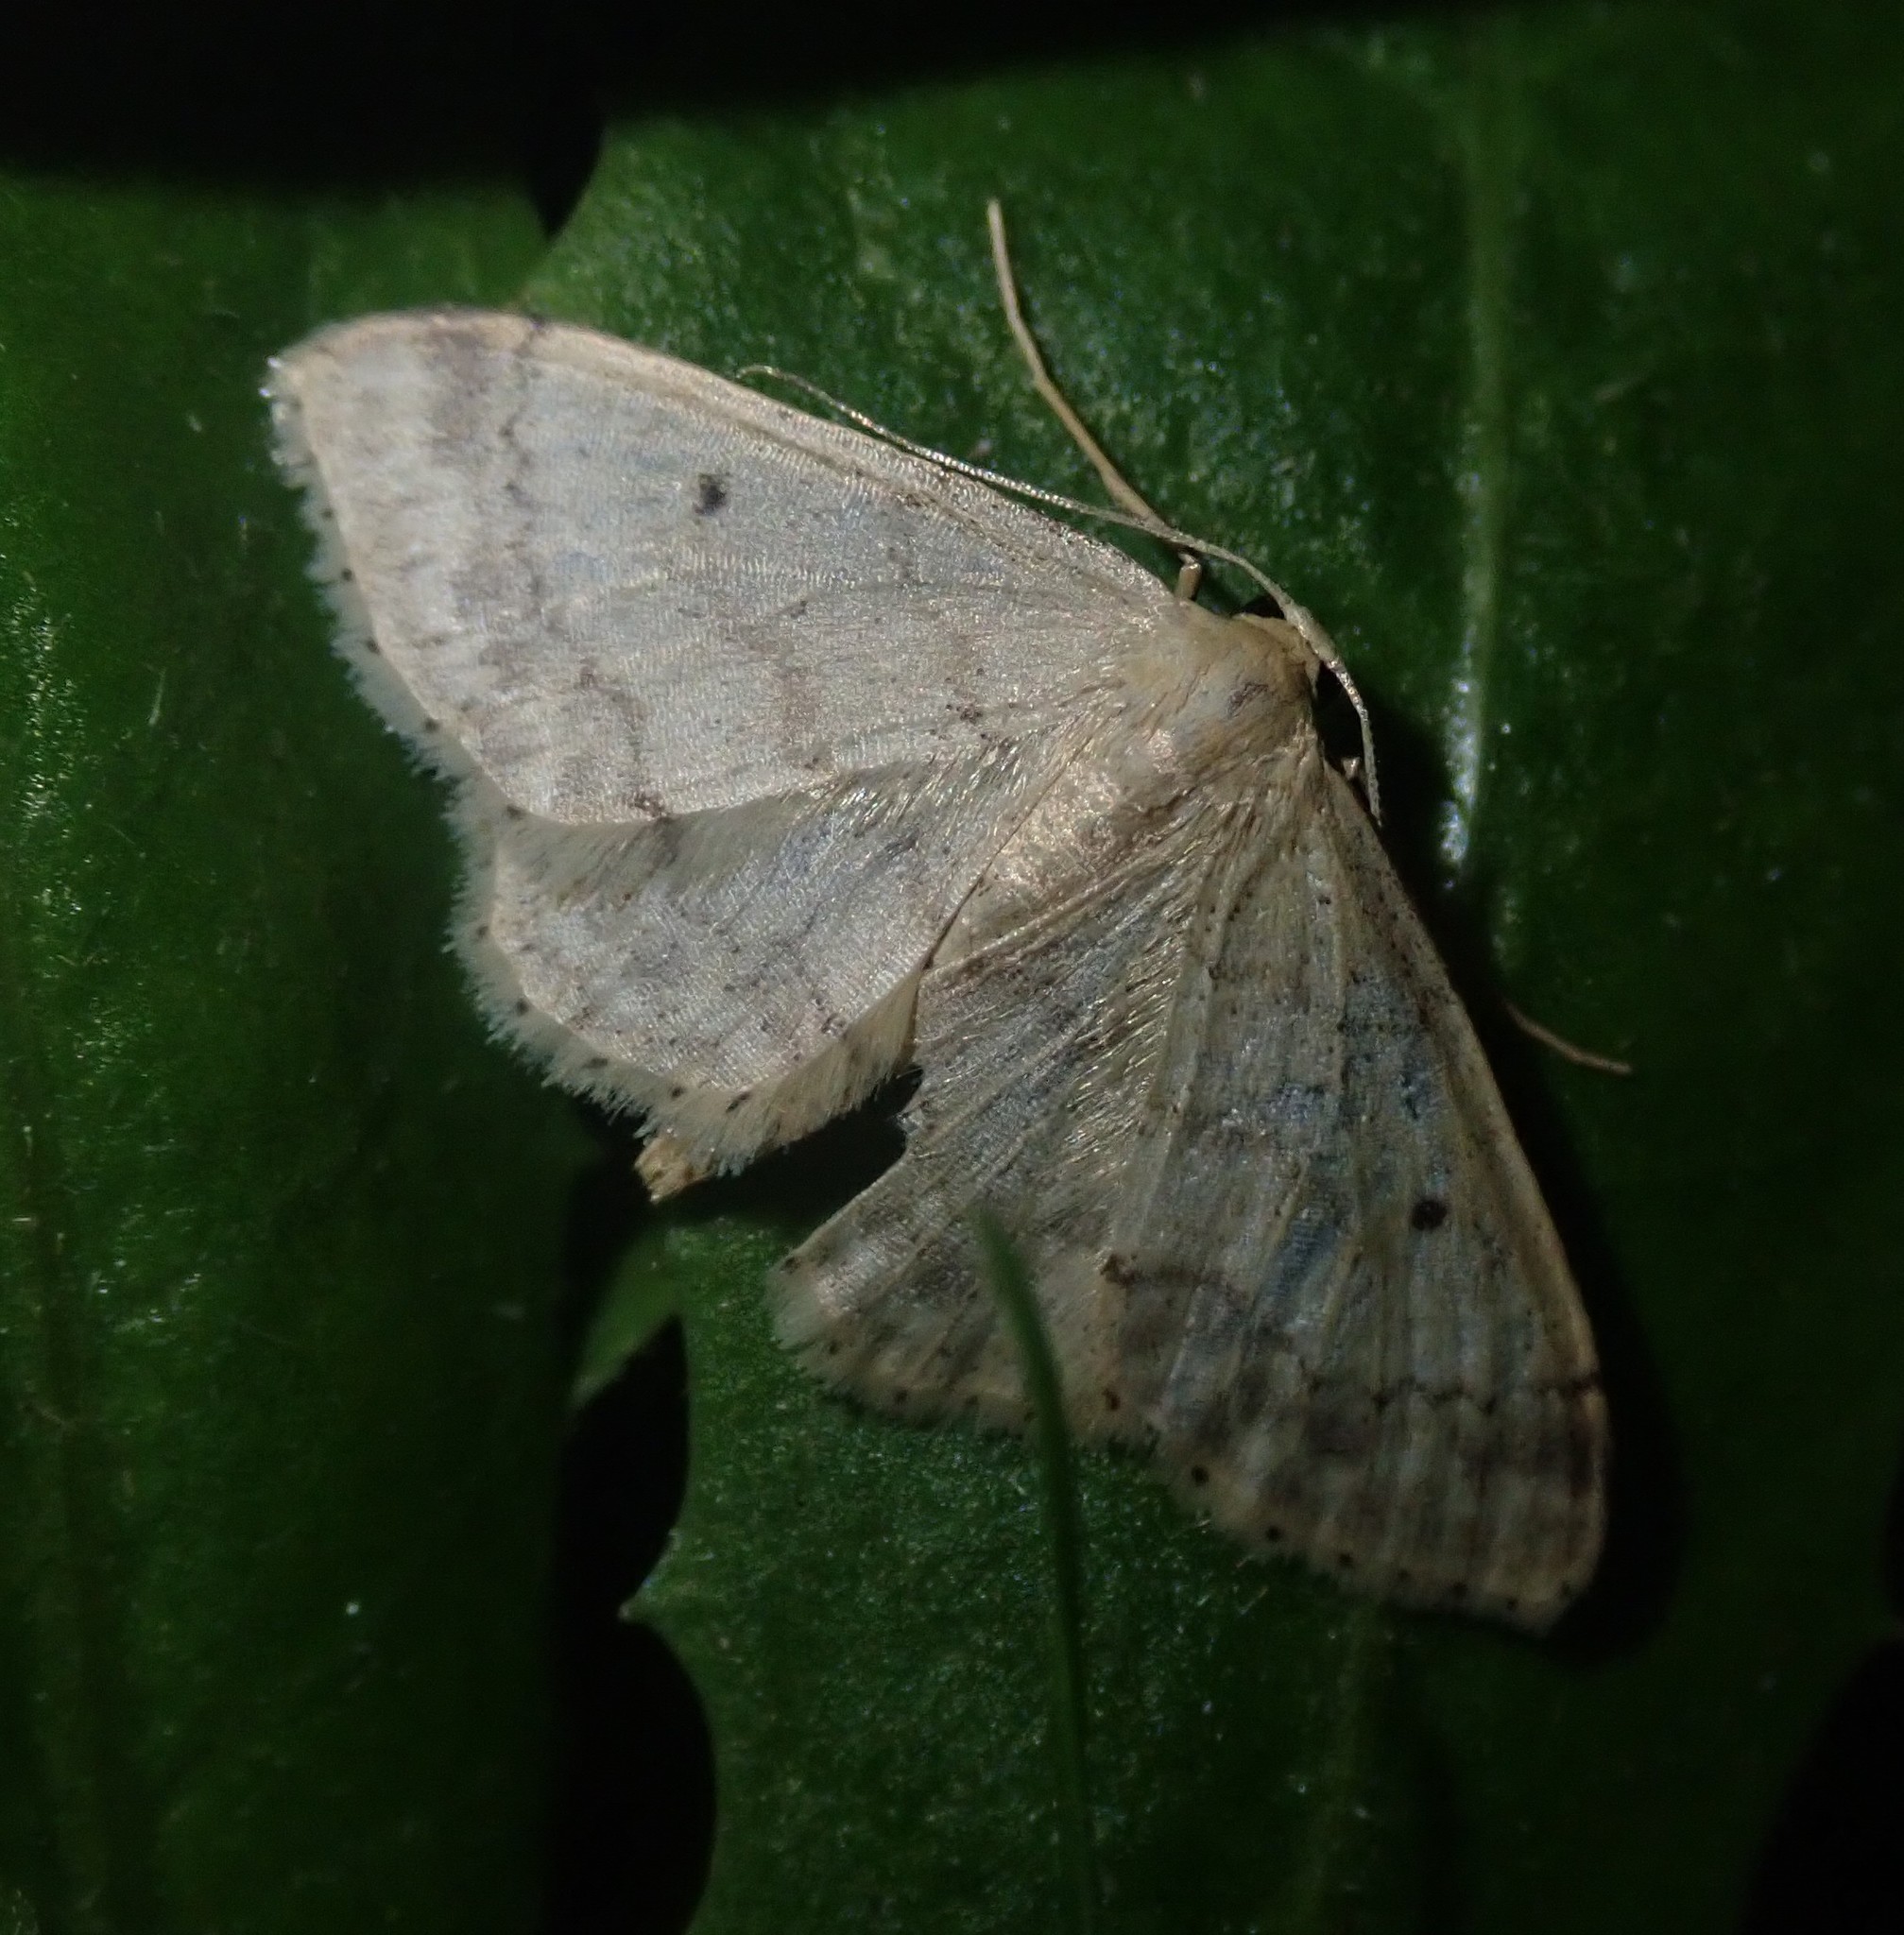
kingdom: Animalia
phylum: Arthropoda
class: Insecta
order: Lepidoptera
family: Geometridae
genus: Idaea
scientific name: Idaea biselata
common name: Small fan-footed wave
